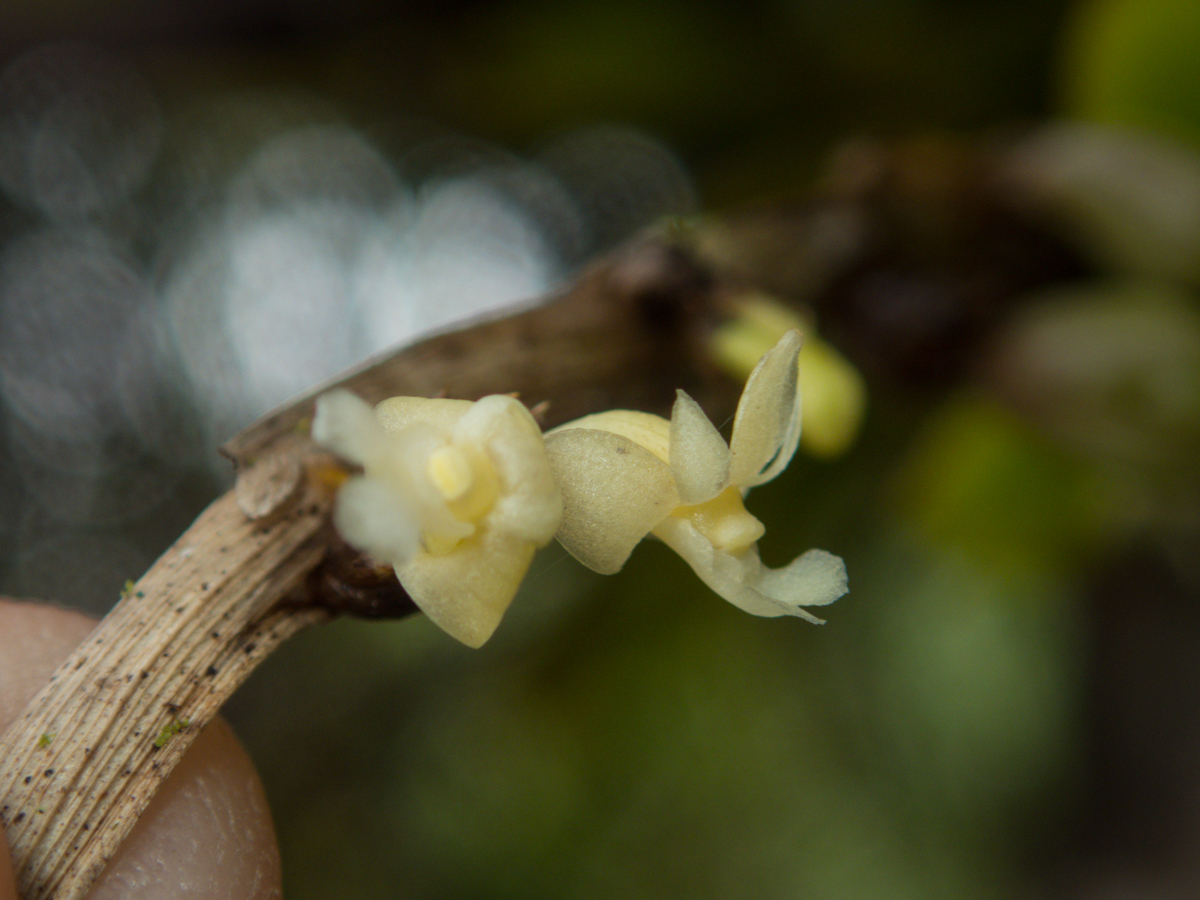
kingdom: Plantae
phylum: Tracheophyta
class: Liliopsida
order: Asparagales
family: Orchidaceae
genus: Dendrobium
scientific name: Dendrobium aloifolium
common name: Aloe-like dendrobium
